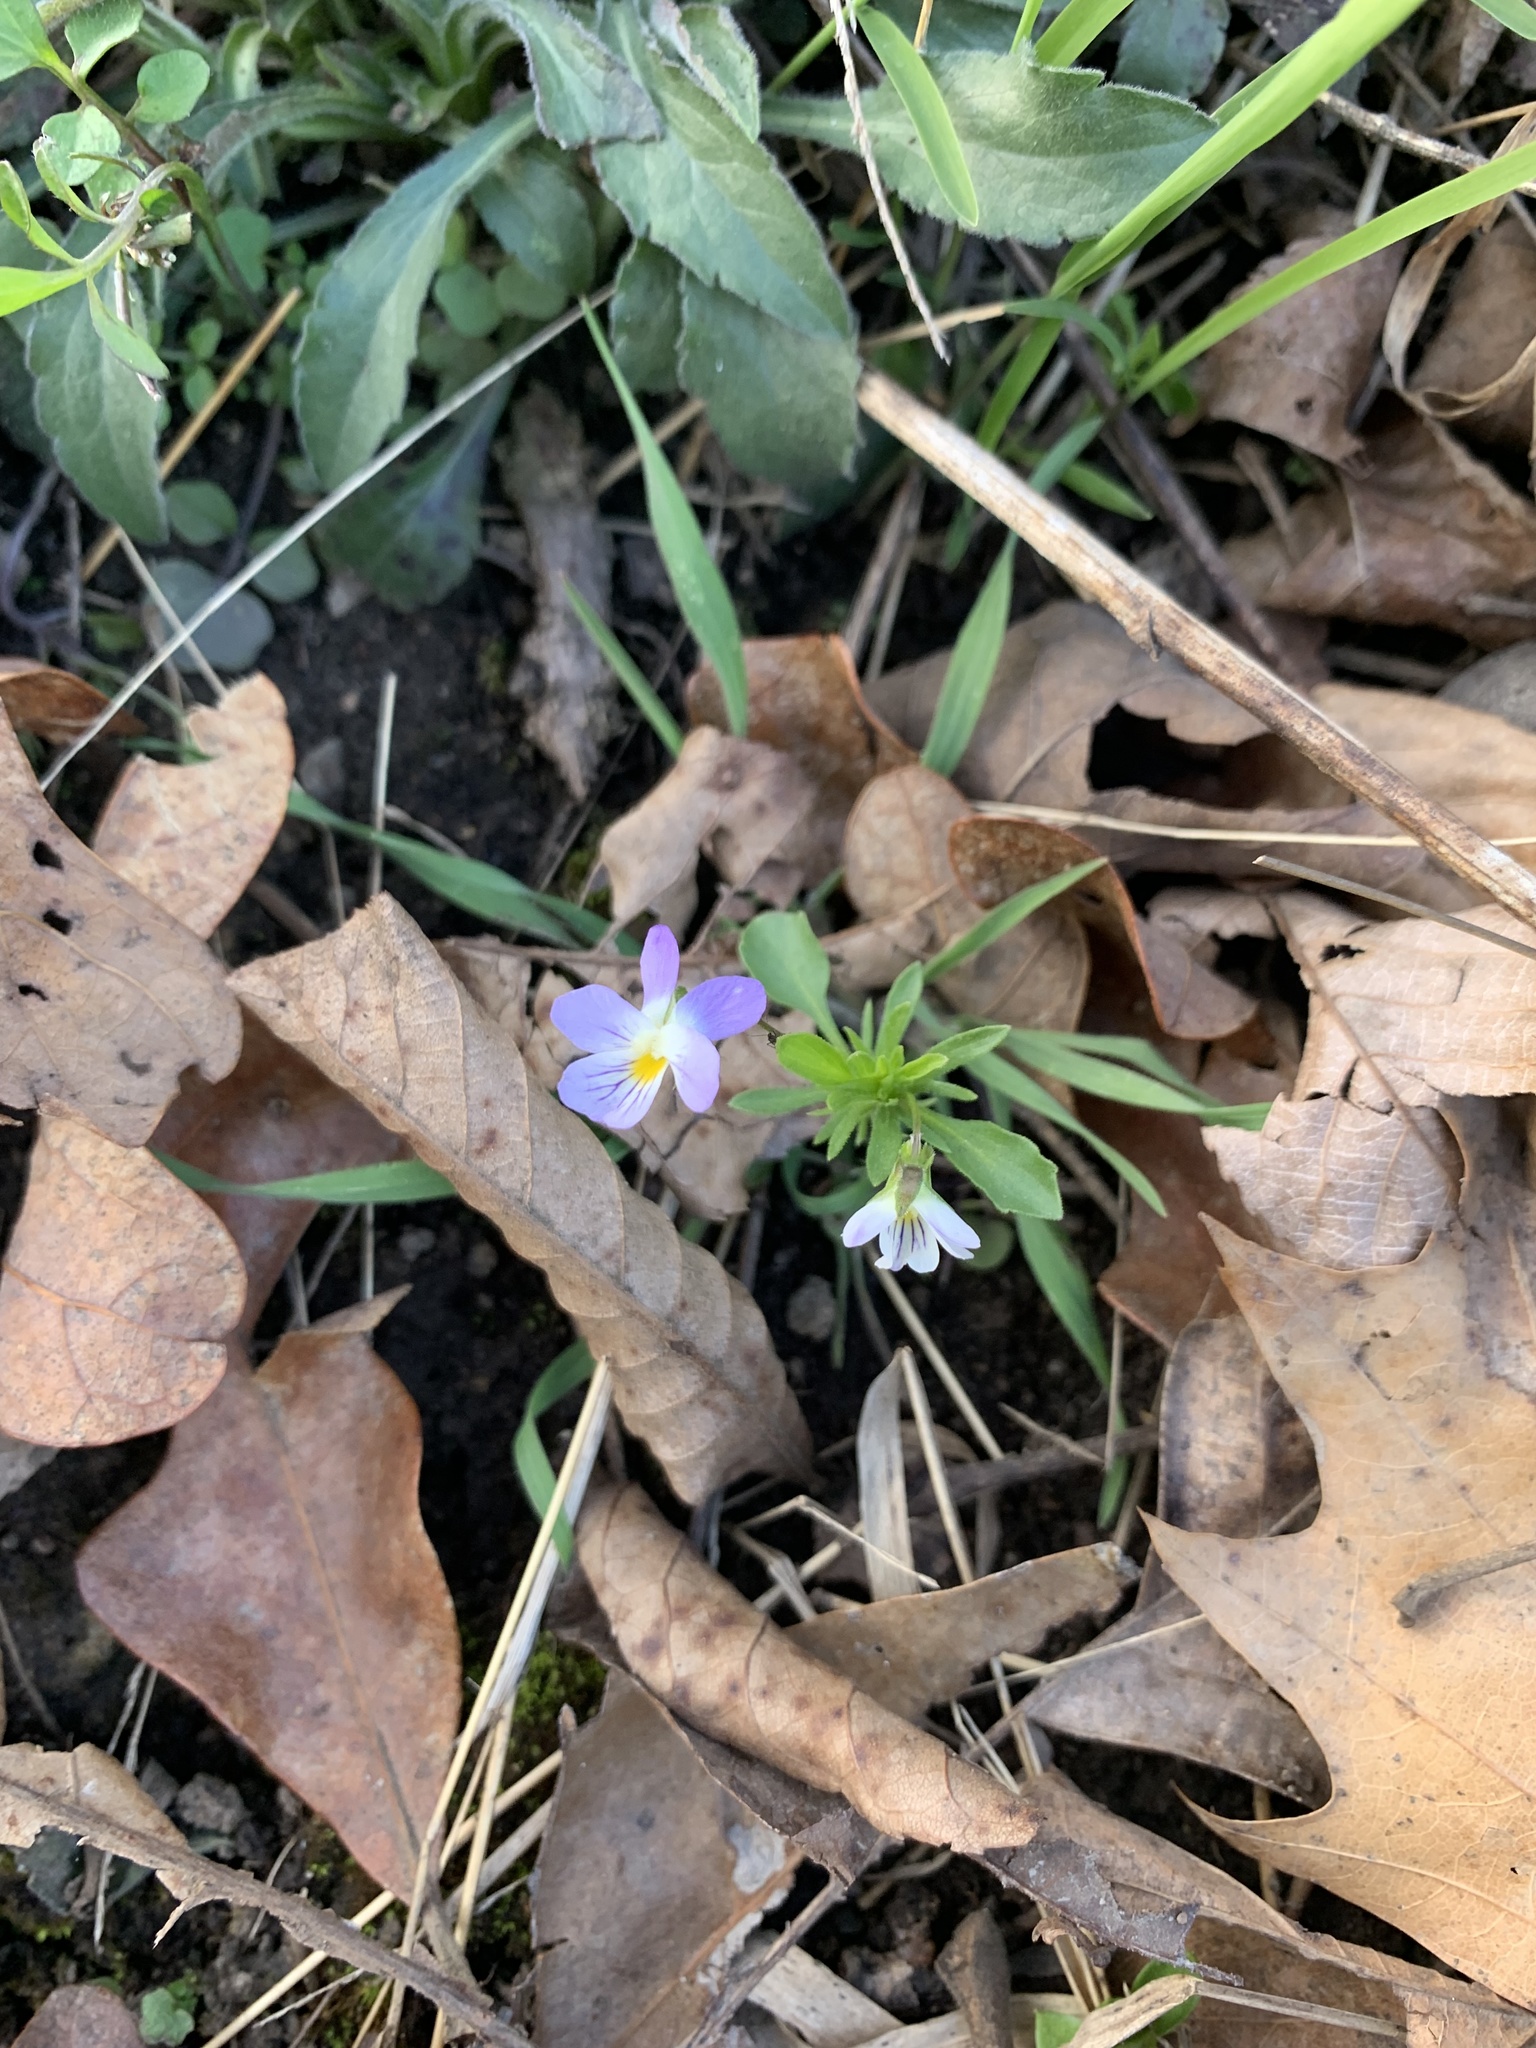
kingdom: Plantae
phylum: Tracheophyta
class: Magnoliopsida
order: Malpighiales
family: Violaceae
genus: Viola
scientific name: Viola rafinesquei
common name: American field pansy
